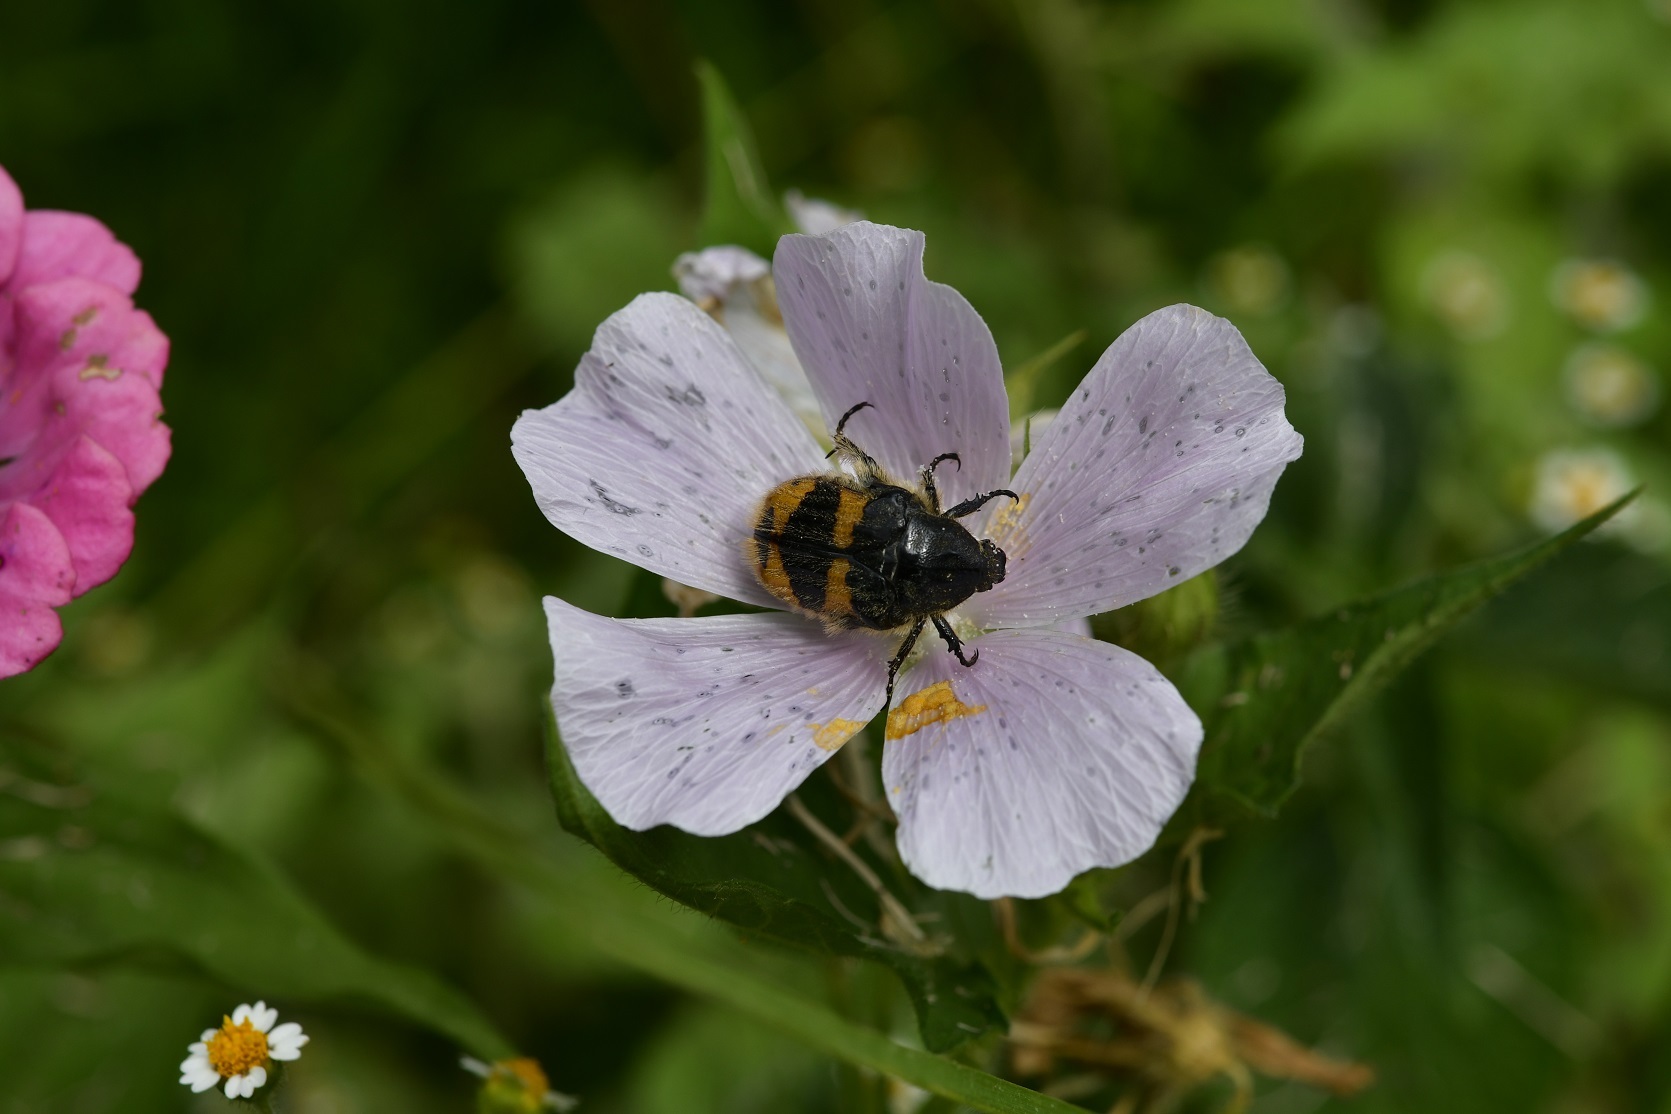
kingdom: Animalia
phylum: Arthropoda
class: Insecta
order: Coleoptera
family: Scarabaeidae
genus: Euphoria
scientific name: Euphoria basalis
